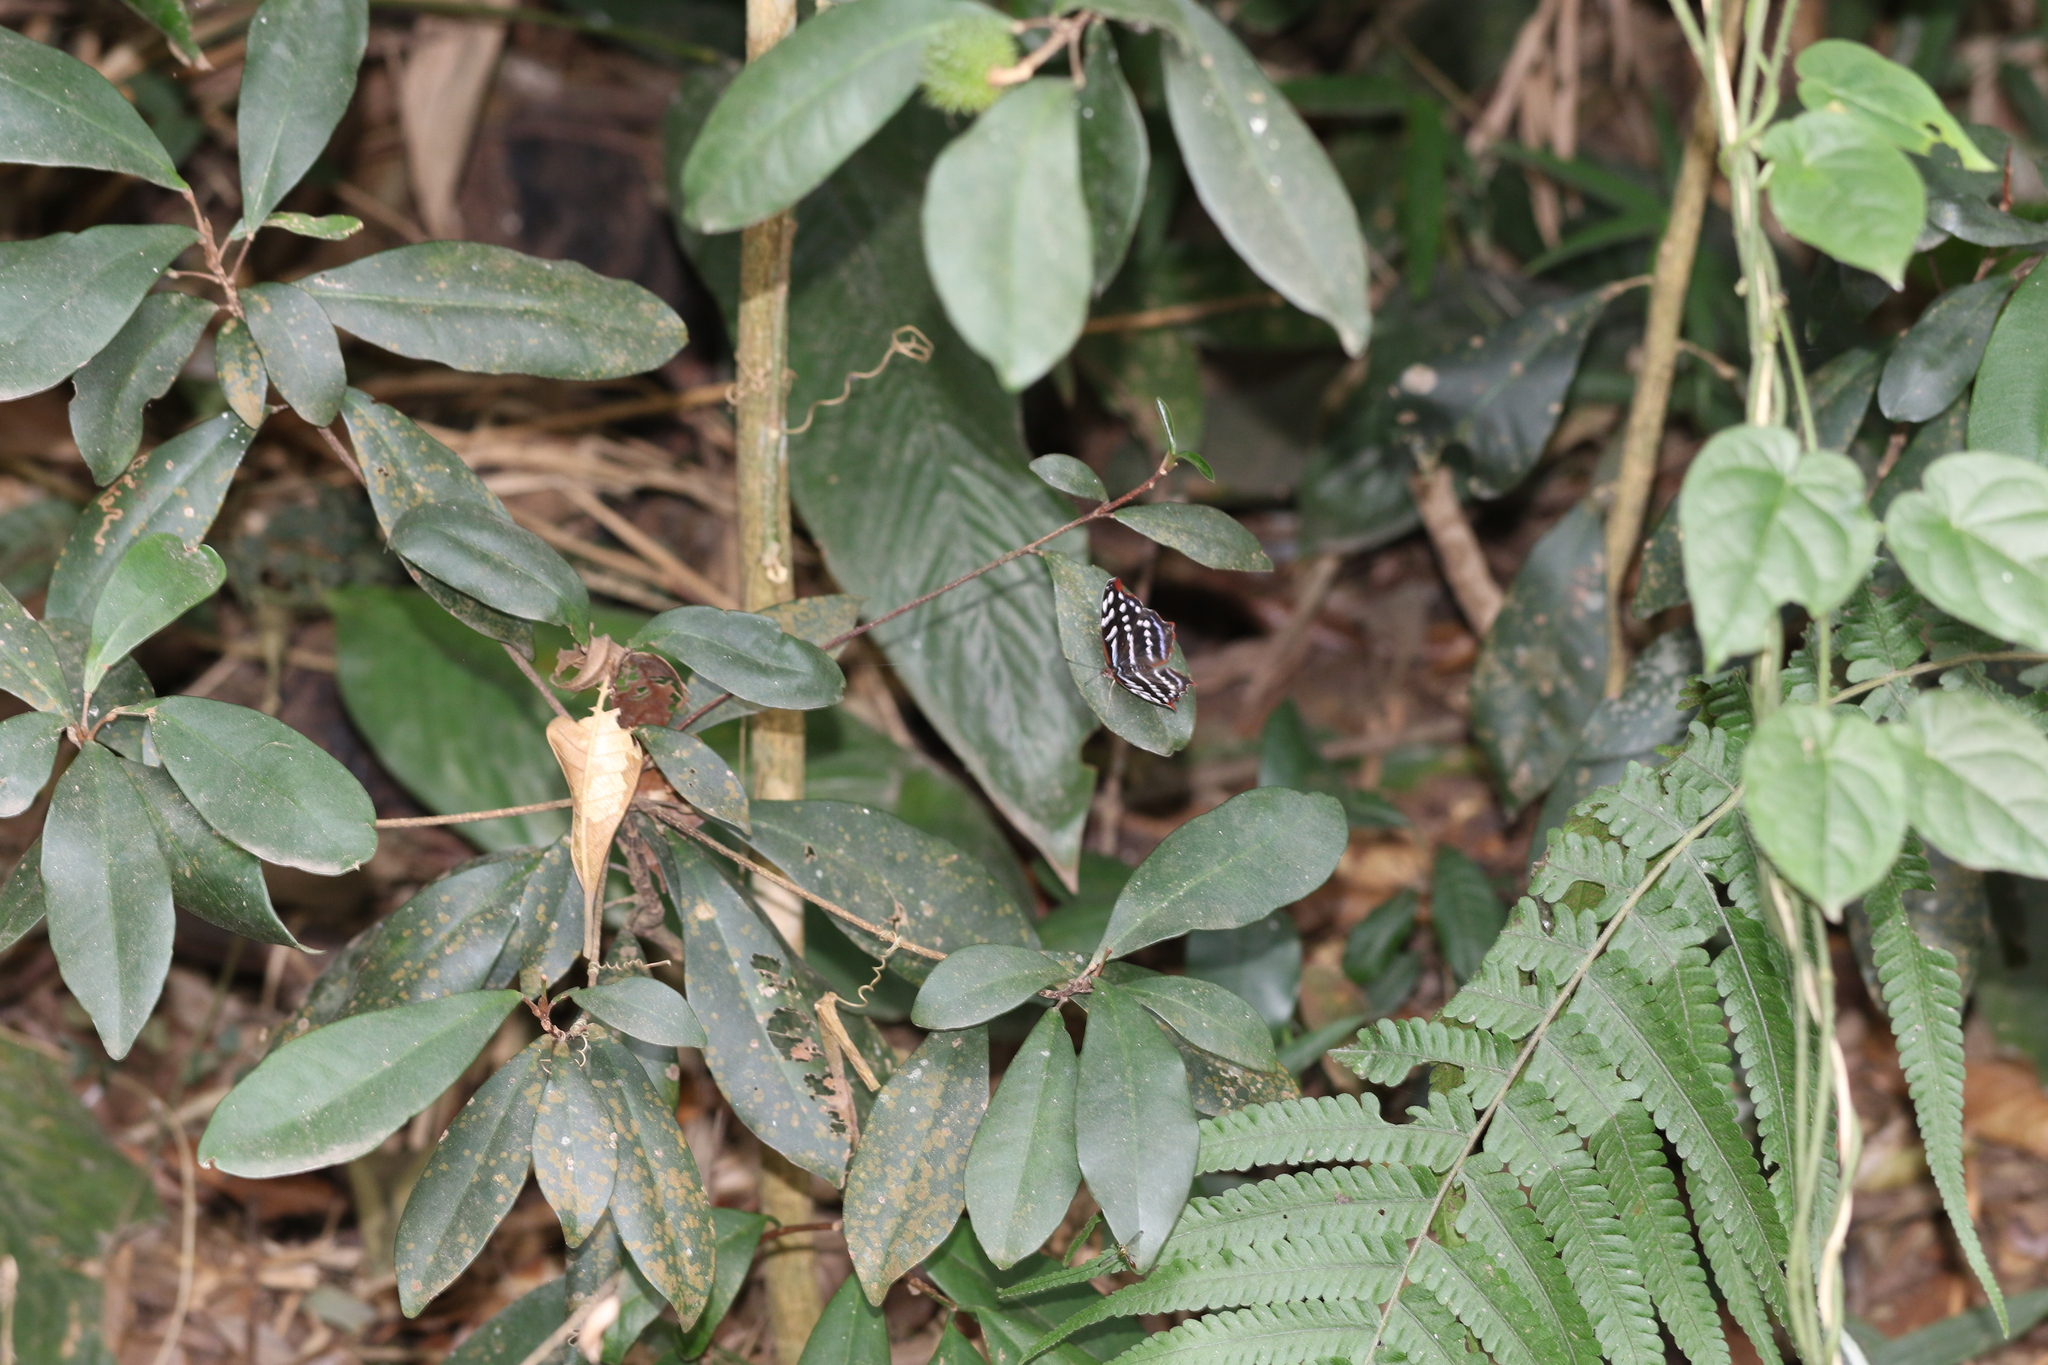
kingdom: Animalia
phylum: Arthropoda
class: Insecta
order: Lepidoptera
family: Nymphalidae
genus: Myscelia
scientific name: Myscelia orsis
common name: Orsis bluewing
